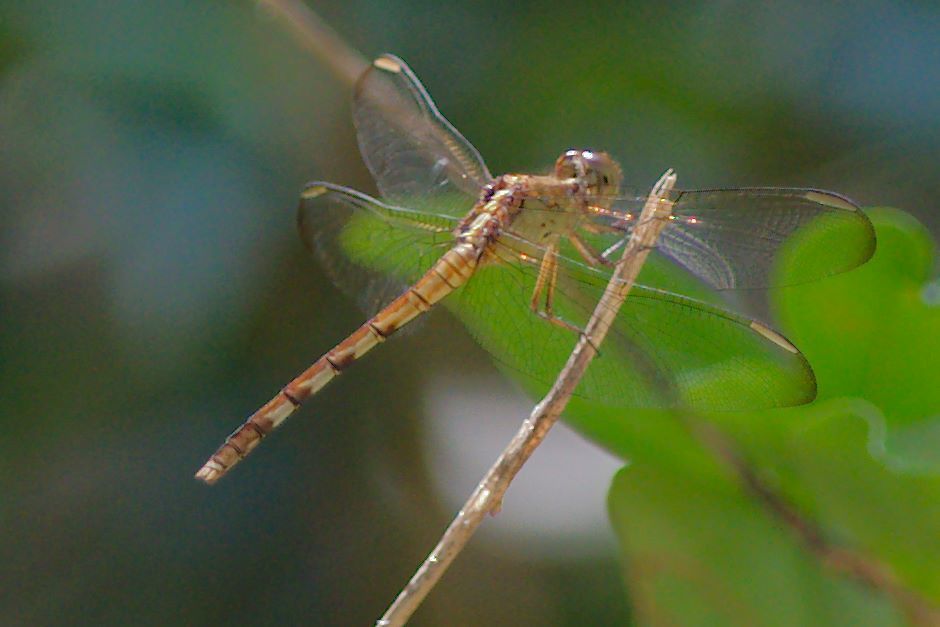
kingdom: Animalia
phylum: Arthropoda
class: Insecta
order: Odonata
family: Libellulidae
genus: Erythrodiplax
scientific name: Erythrodiplax umbrata
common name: Band-winged dragonlet
